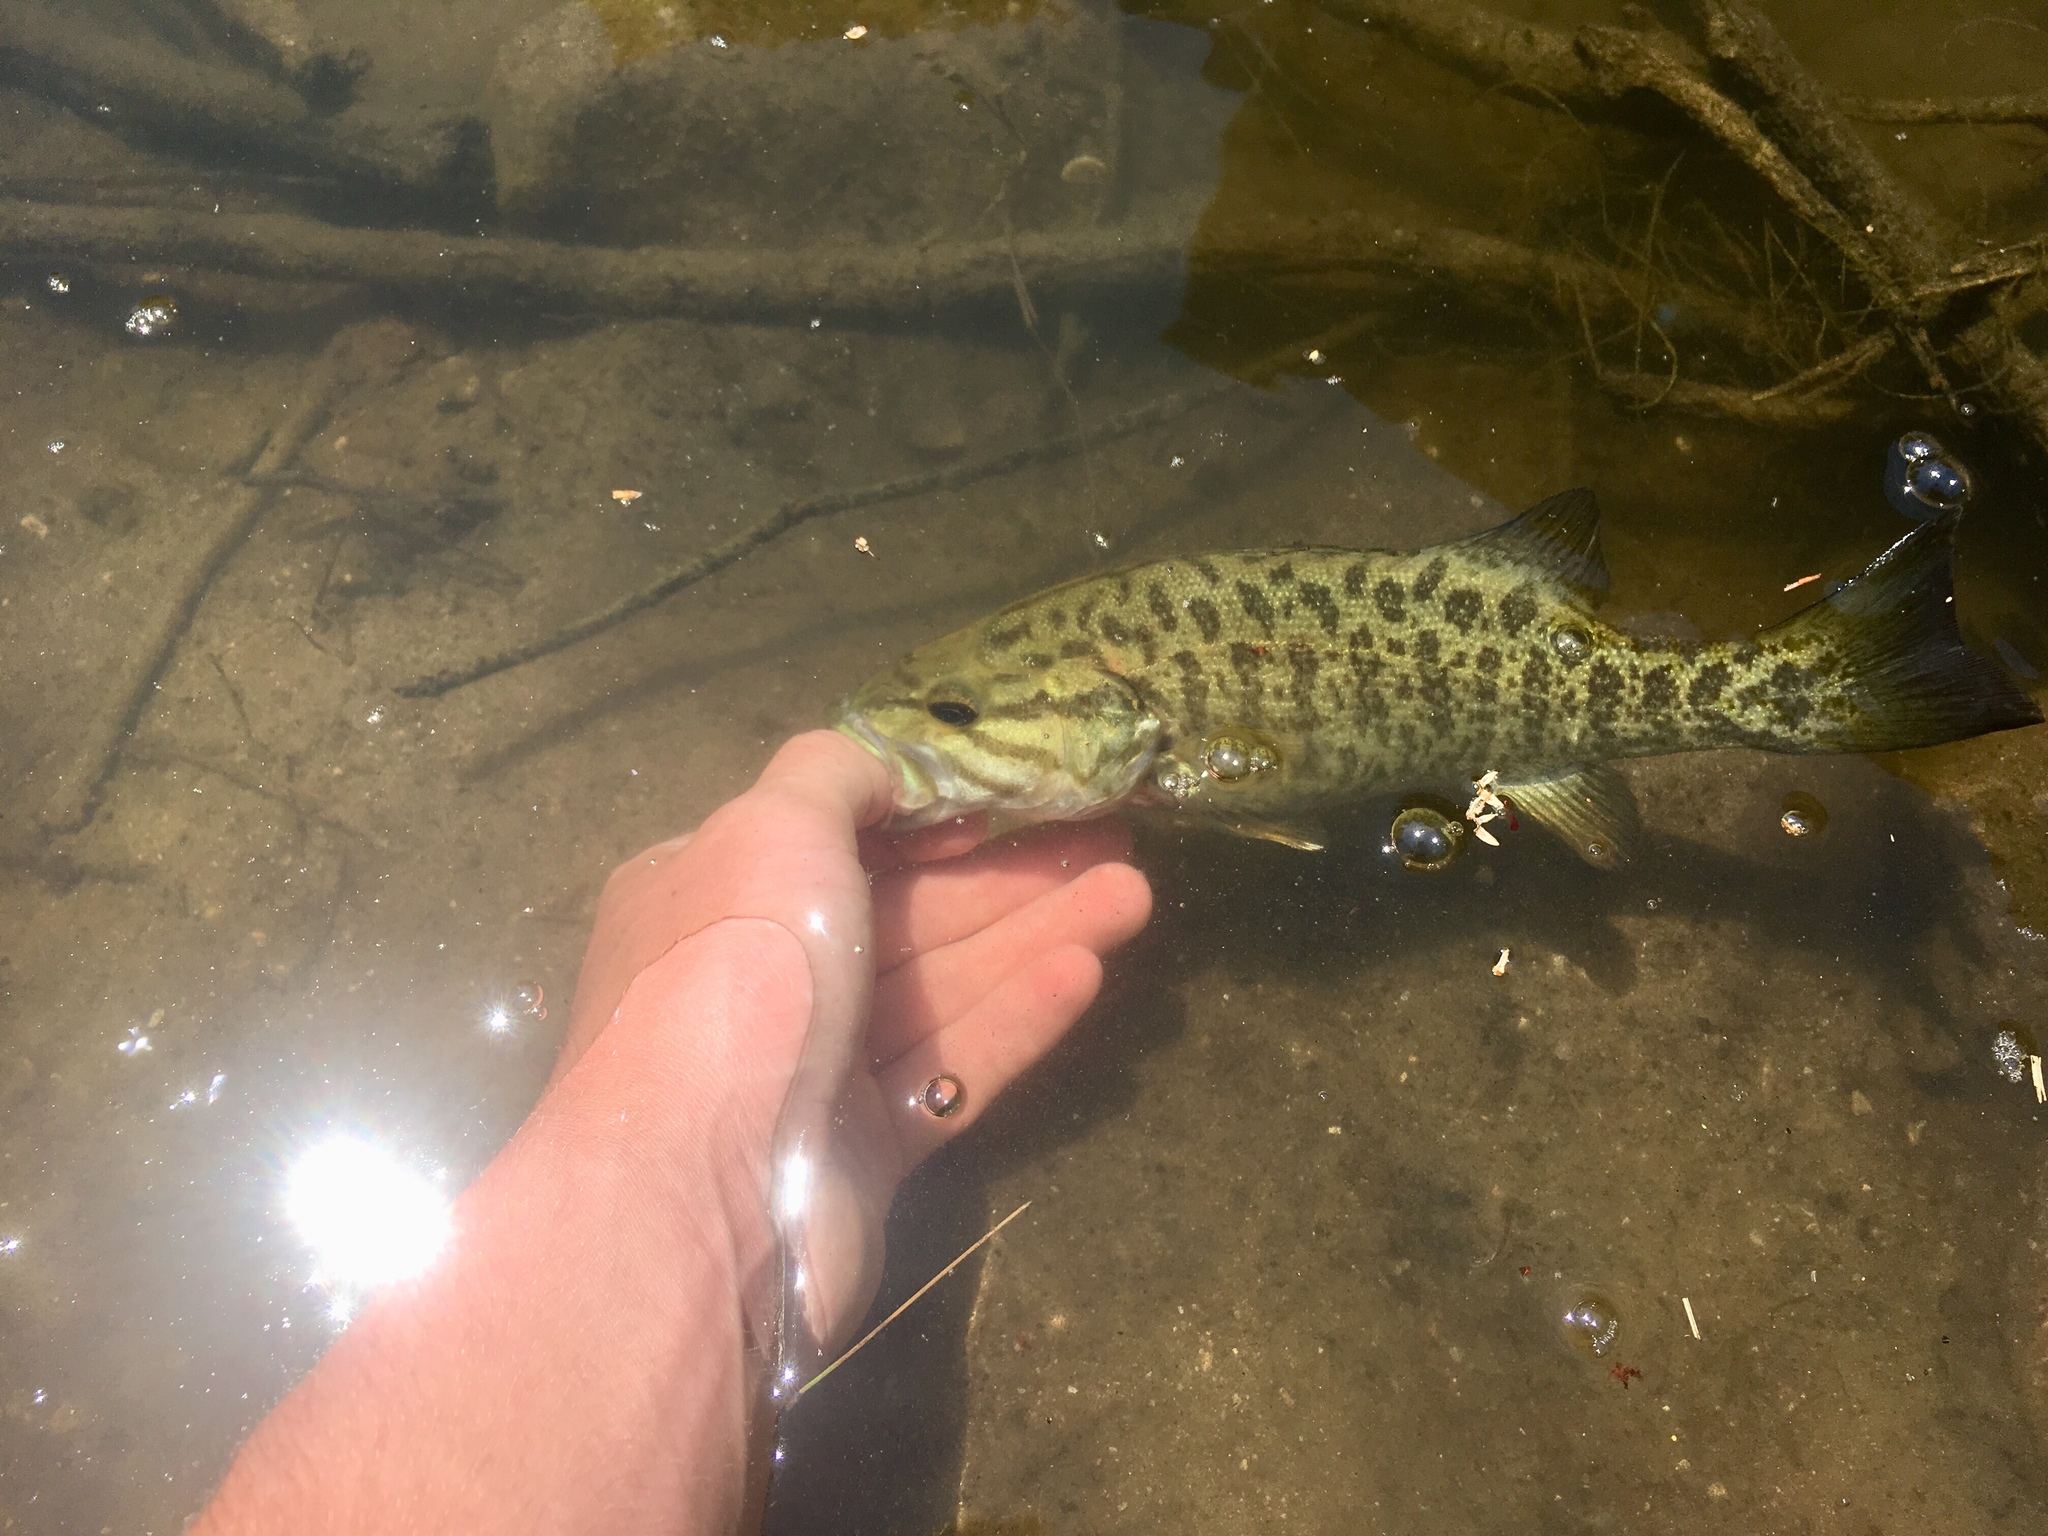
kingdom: Animalia
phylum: Chordata
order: Perciformes
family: Centrarchidae
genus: Micropterus
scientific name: Micropterus dolomieu
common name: Smallmouth bass
